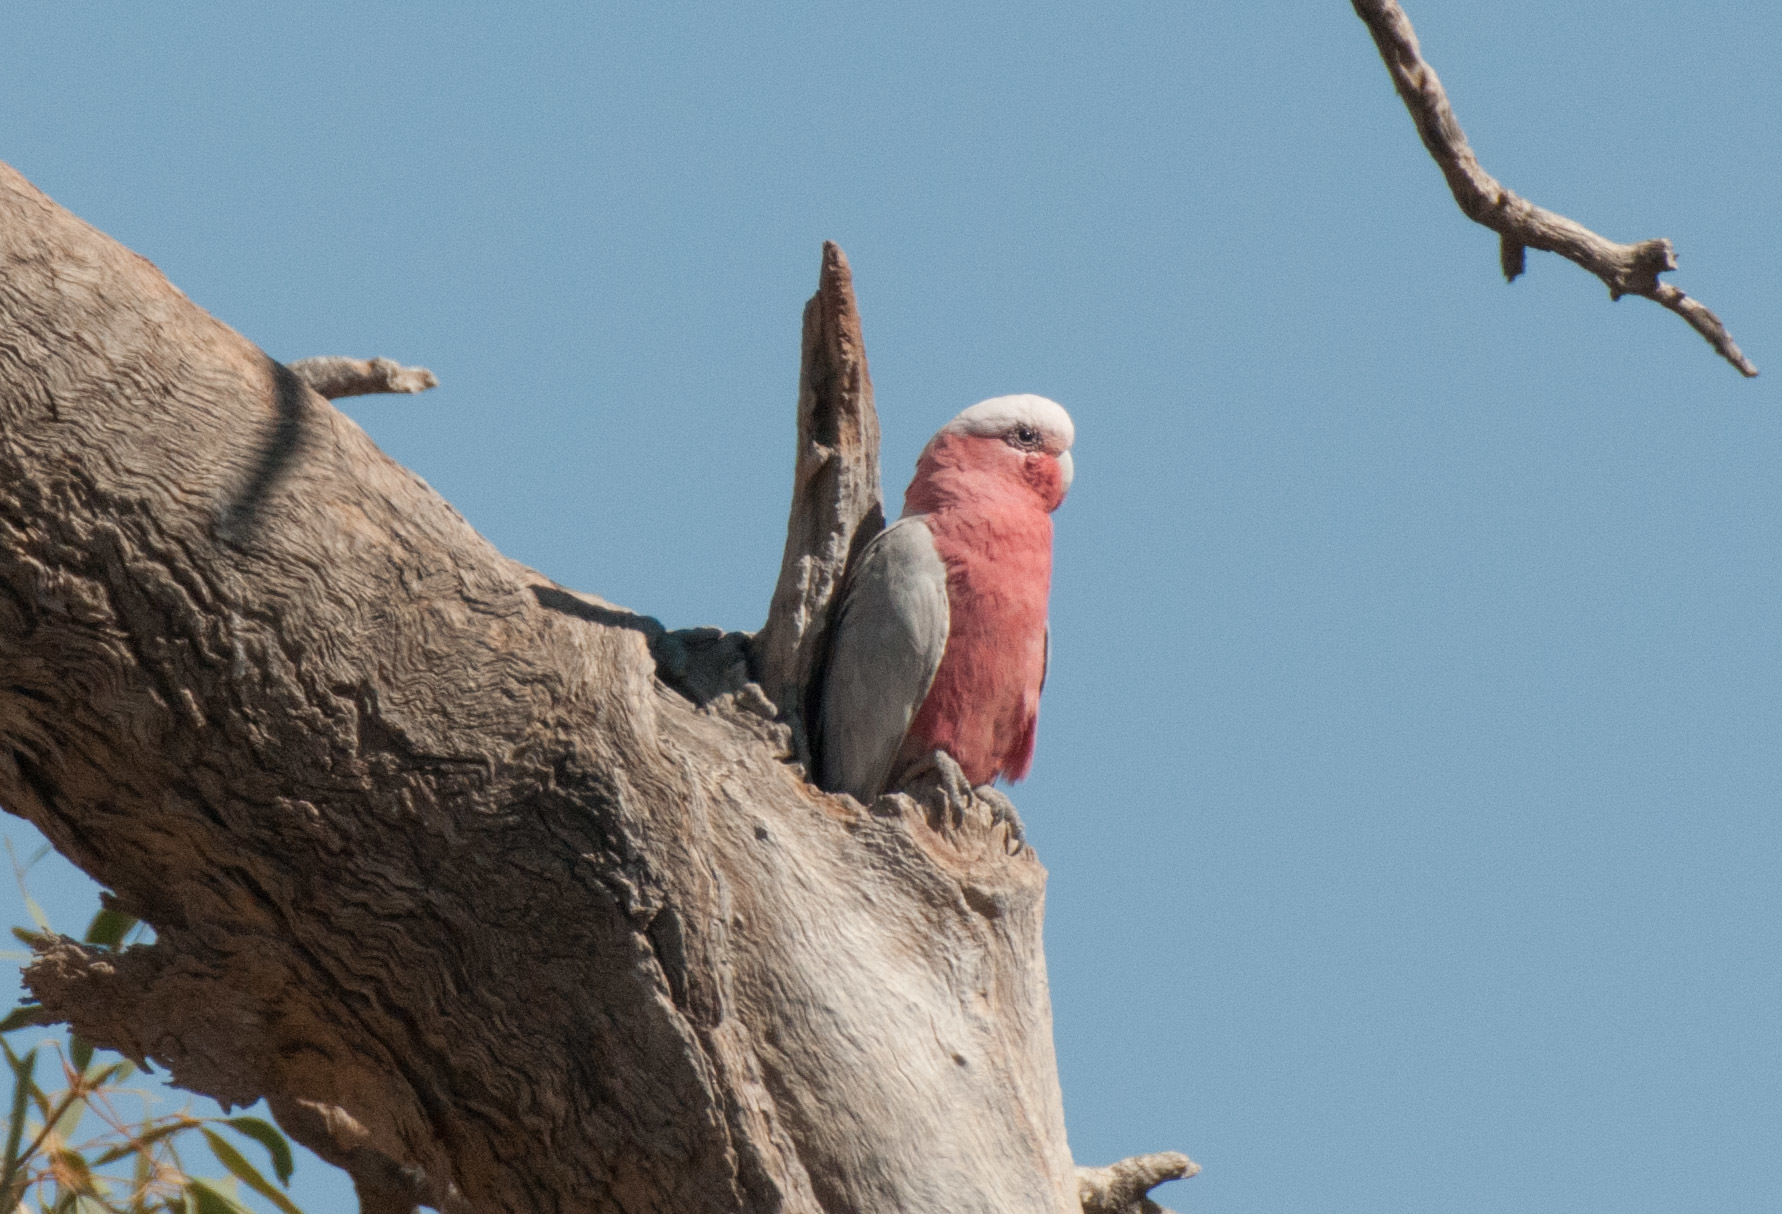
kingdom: Animalia
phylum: Chordata
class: Aves
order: Psittaciformes
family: Psittacidae
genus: Eolophus
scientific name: Eolophus roseicapilla
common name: Galah
